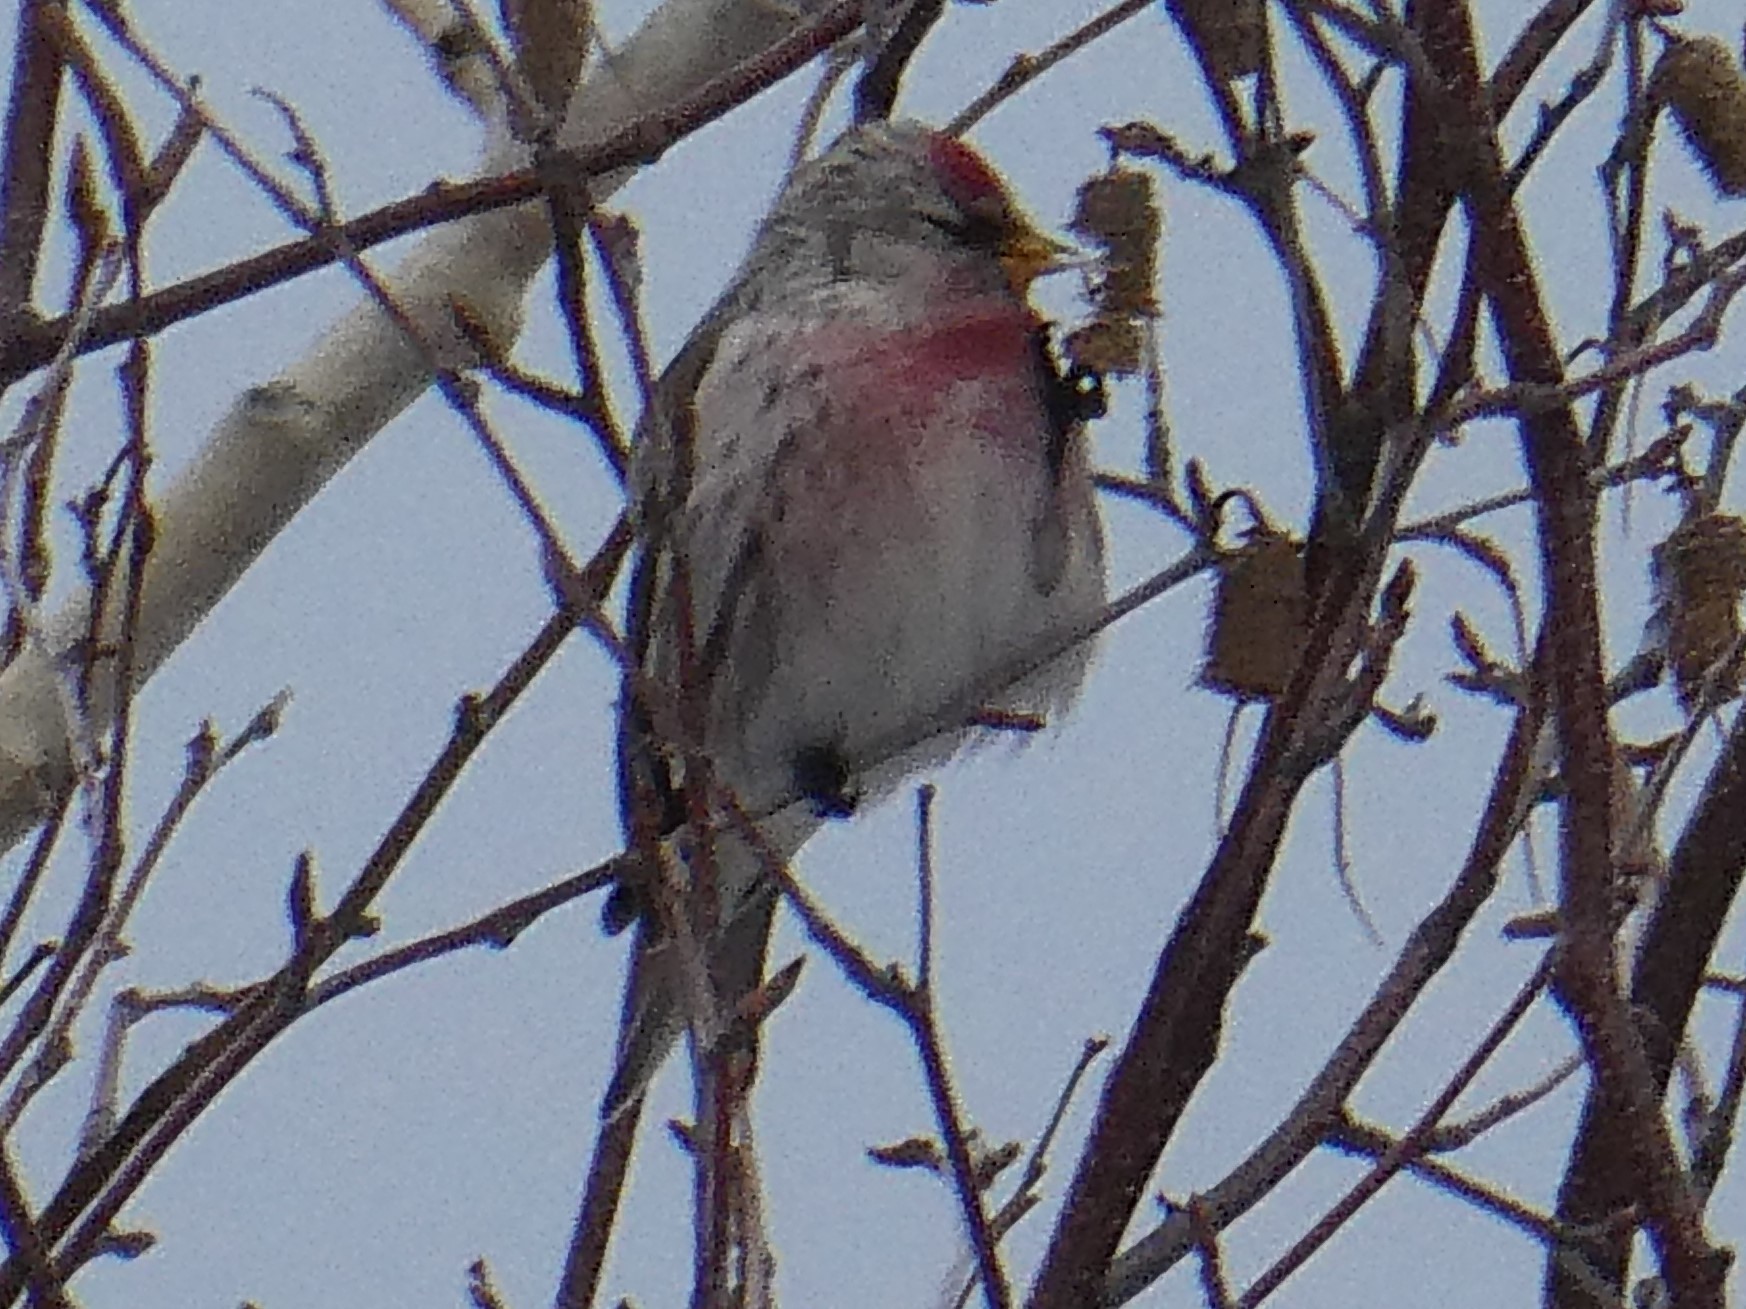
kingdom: Animalia
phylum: Chordata
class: Aves
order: Passeriformes
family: Fringillidae
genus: Acanthis
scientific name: Acanthis flammea
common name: Common redpoll
